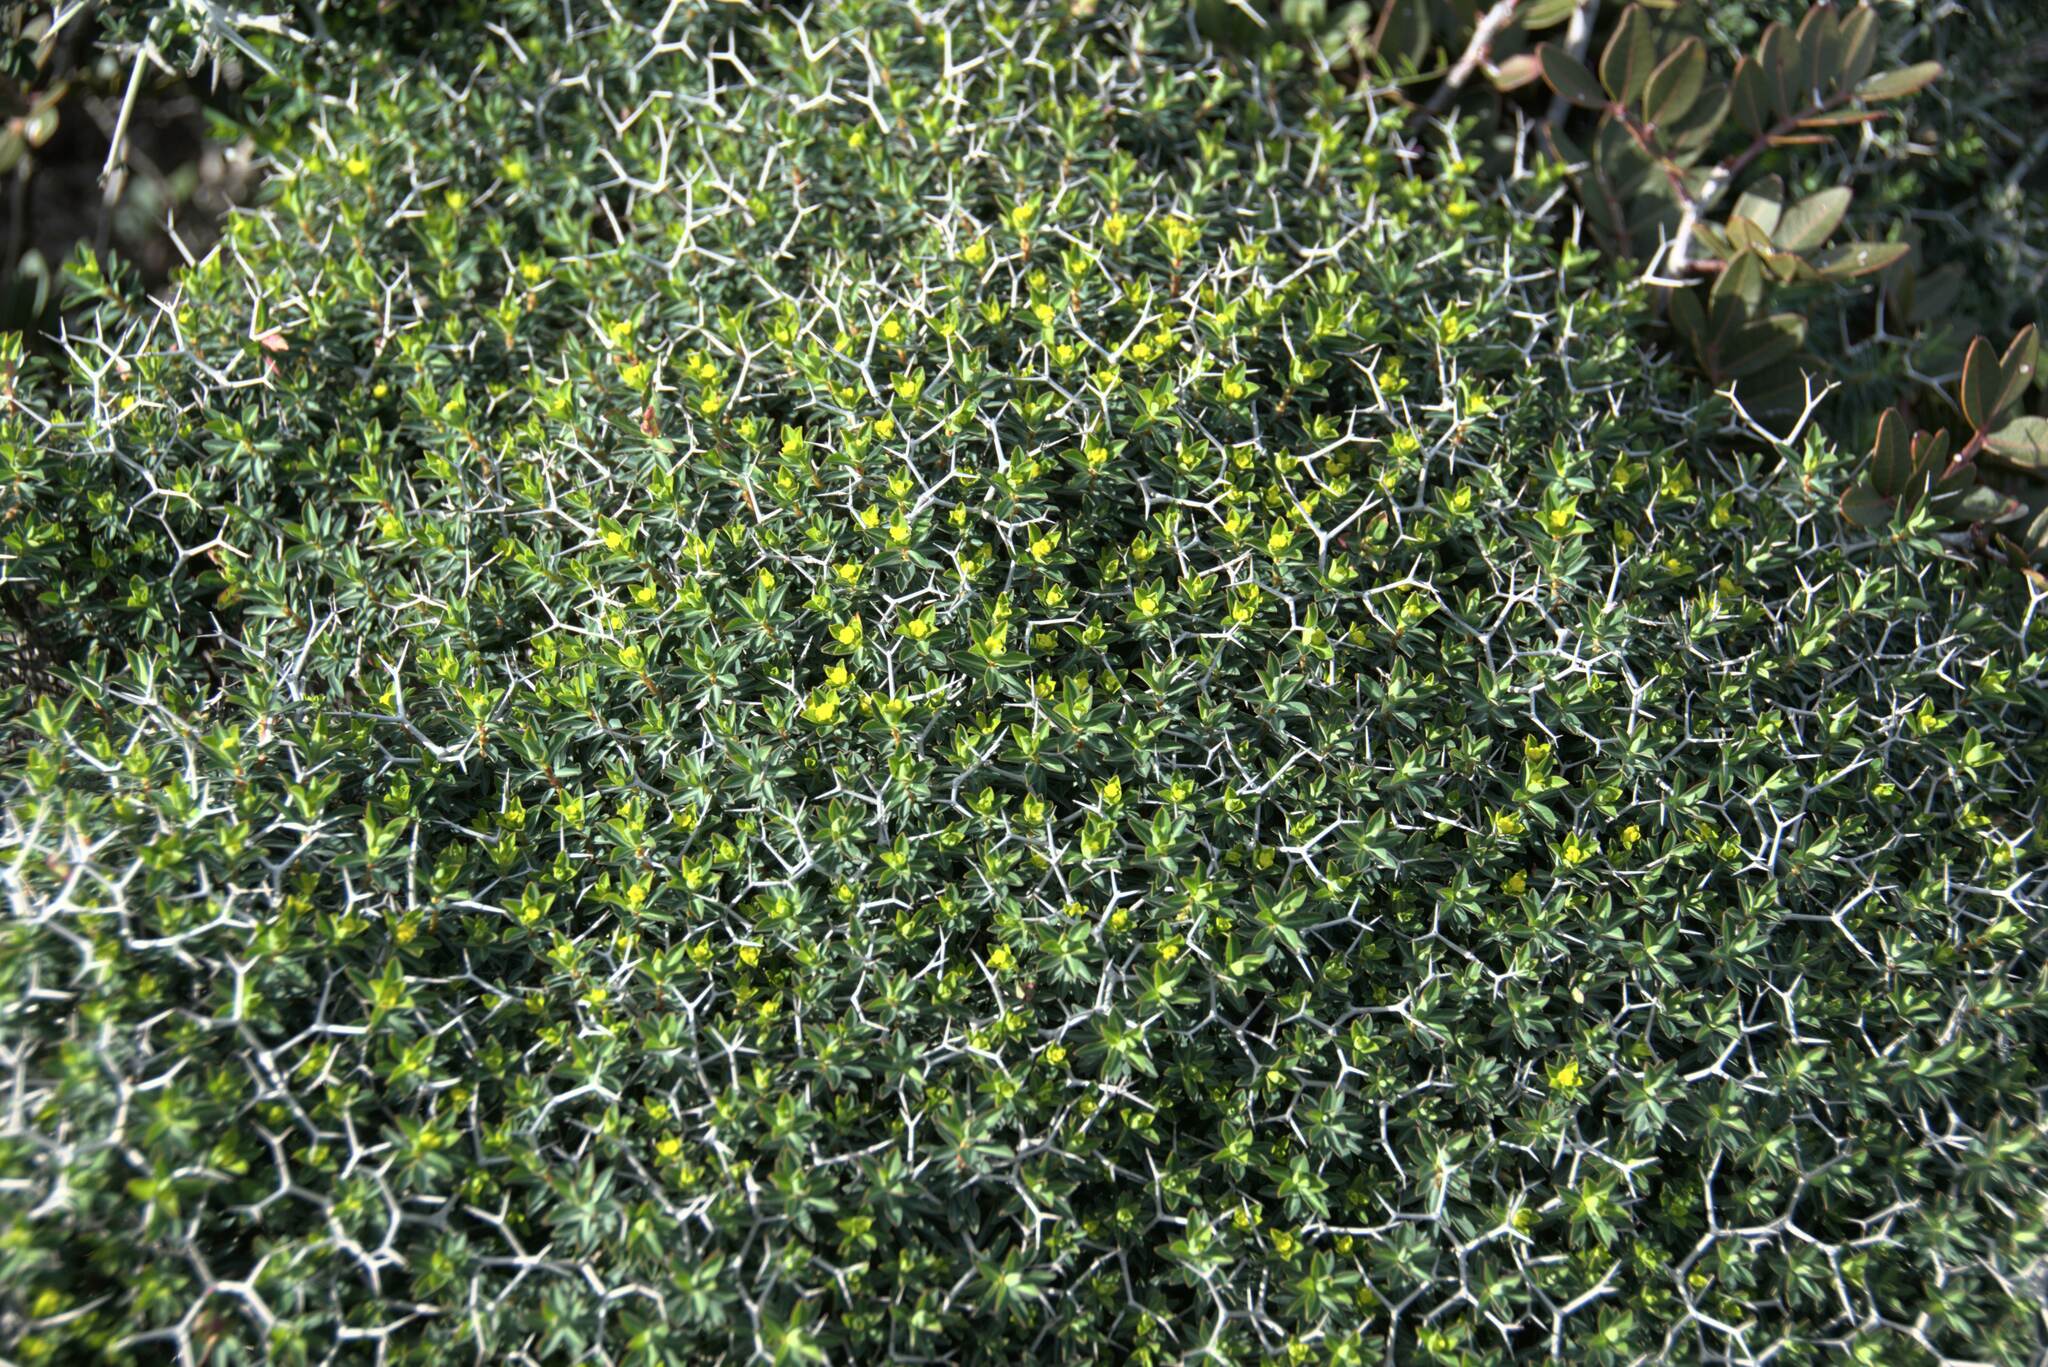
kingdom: Plantae
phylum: Tracheophyta
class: Magnoliopsida
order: Malpighiales
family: Euphorbiaceae
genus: Euphorbia
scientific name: Euphorbia acanthothamnos
